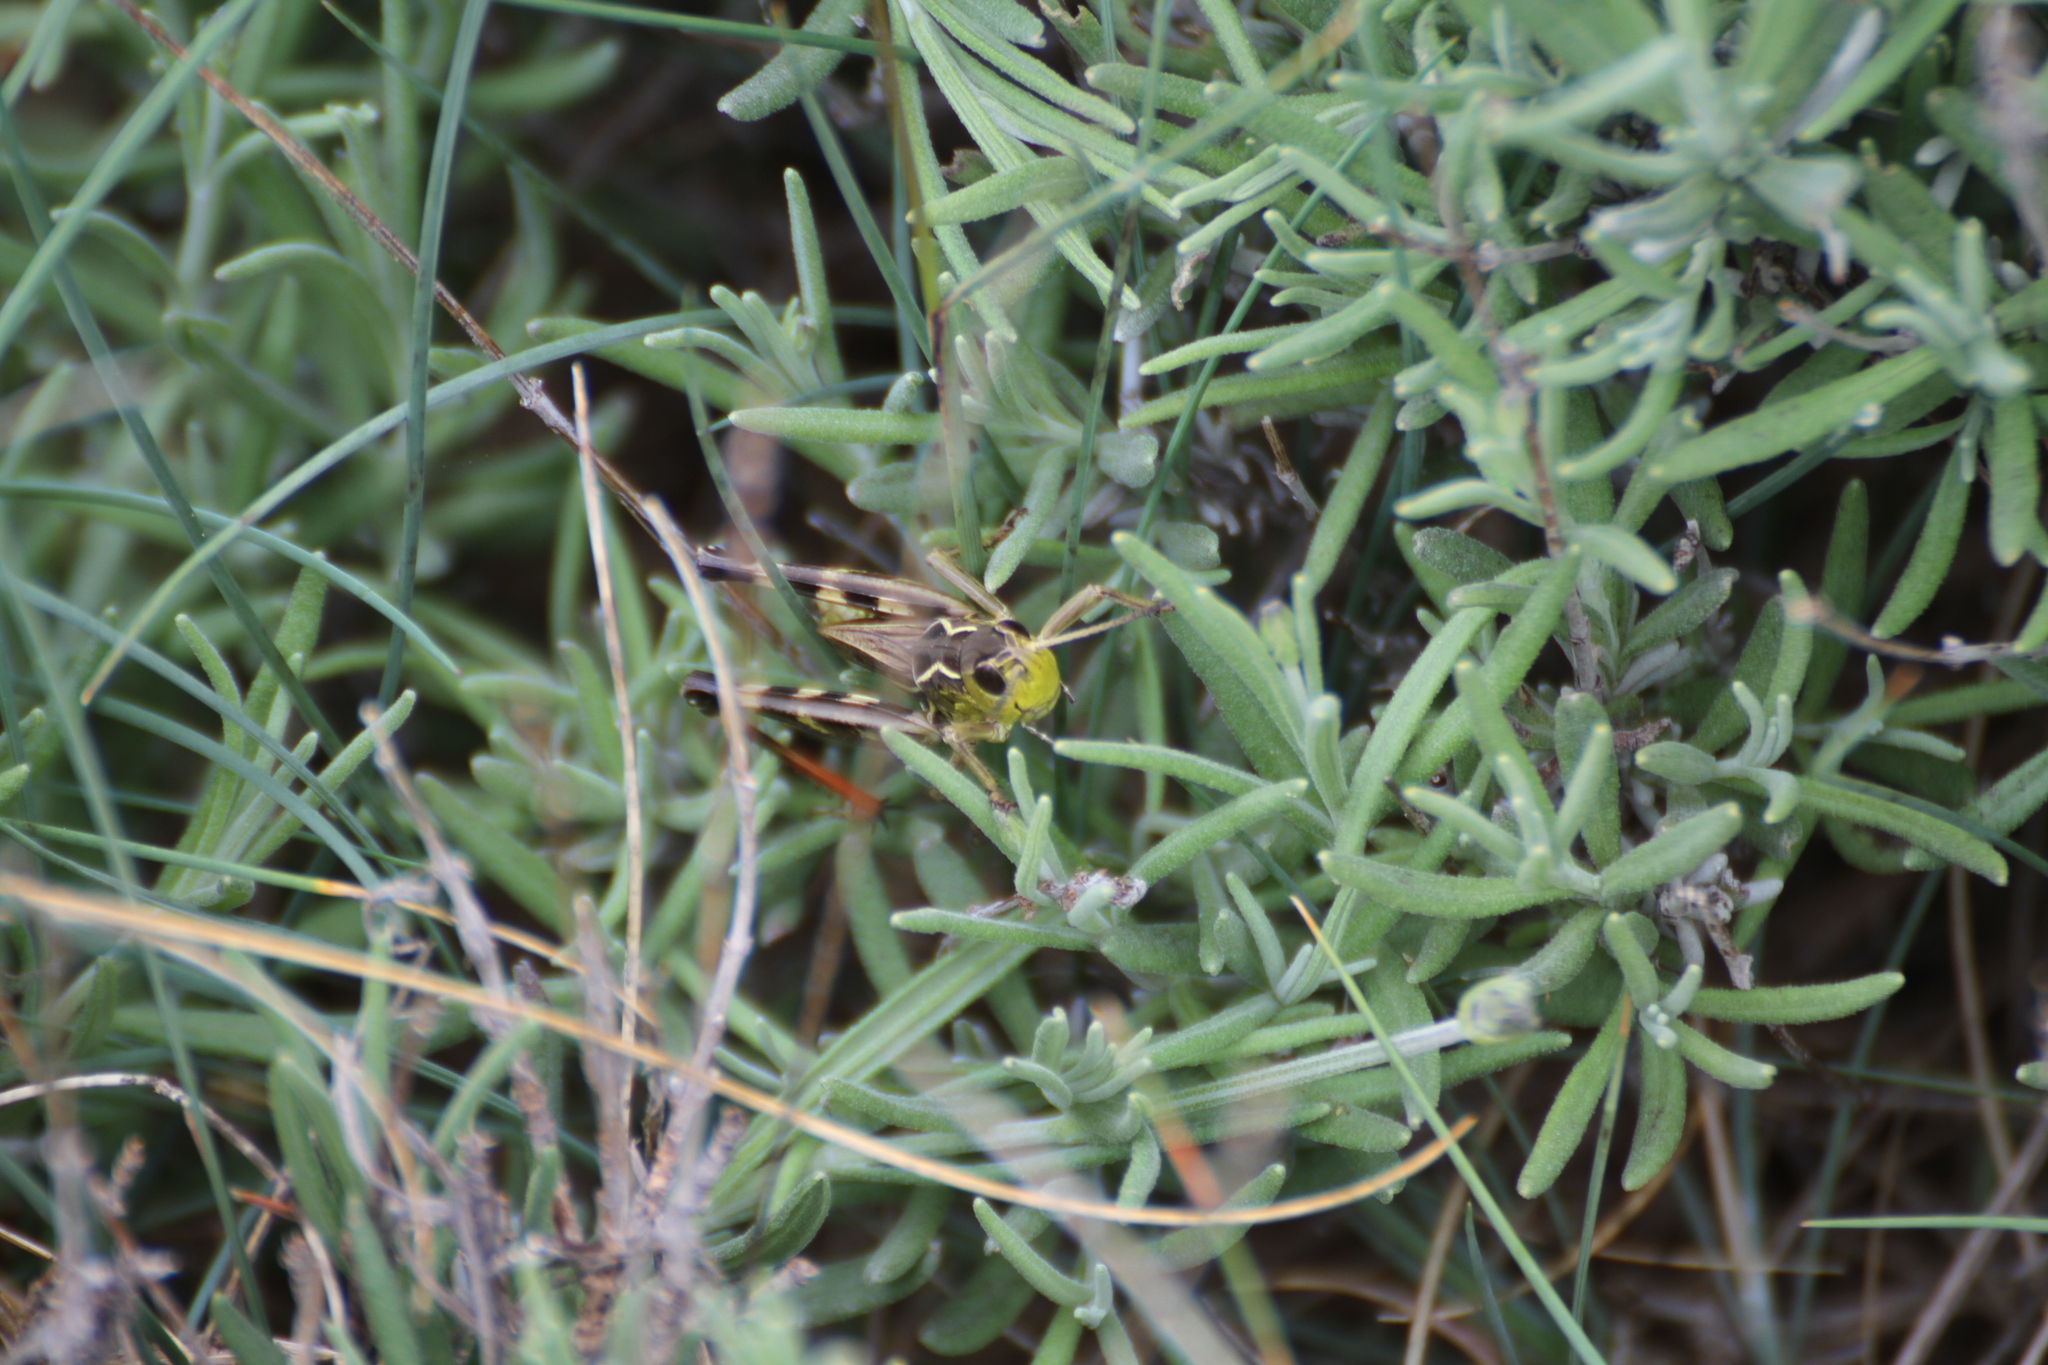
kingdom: Animalia
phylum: Arthropoda
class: Insecta
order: Orthoptera
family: Acrididae
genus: Arcyptera
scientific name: Arcyptera kheili
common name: Provence banded grasshopper
